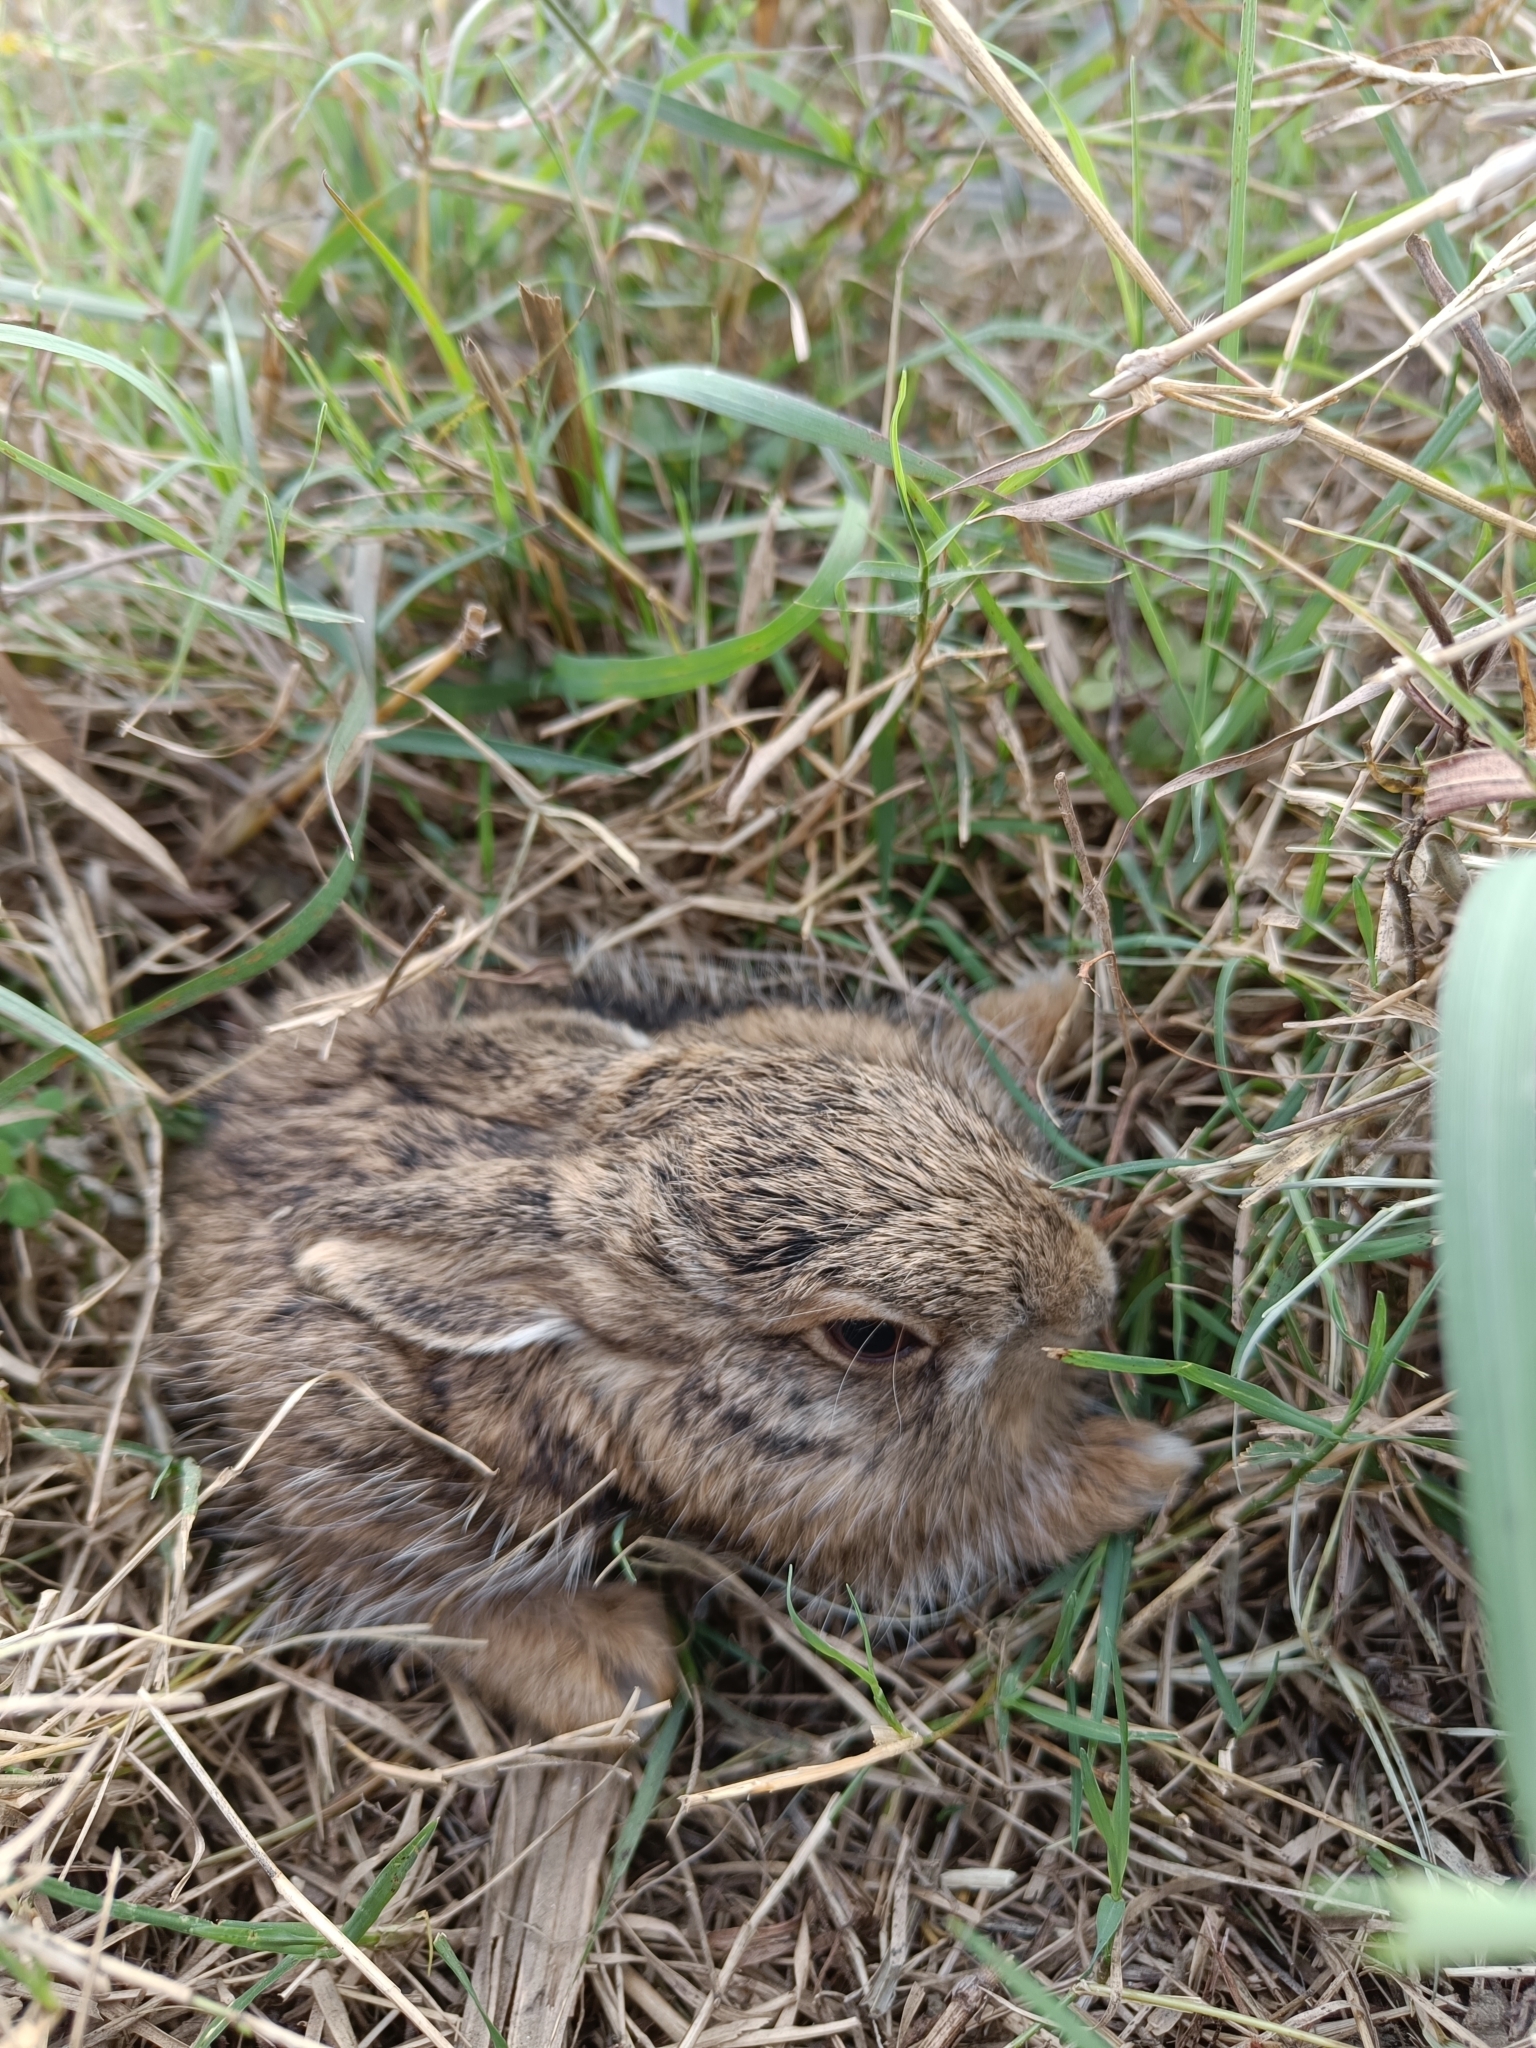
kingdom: Animalia
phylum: Chordata
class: Mammalia
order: Lagomorpha
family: Leporidae
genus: Lepus
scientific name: Lepus nigricollis
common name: Indian hare
